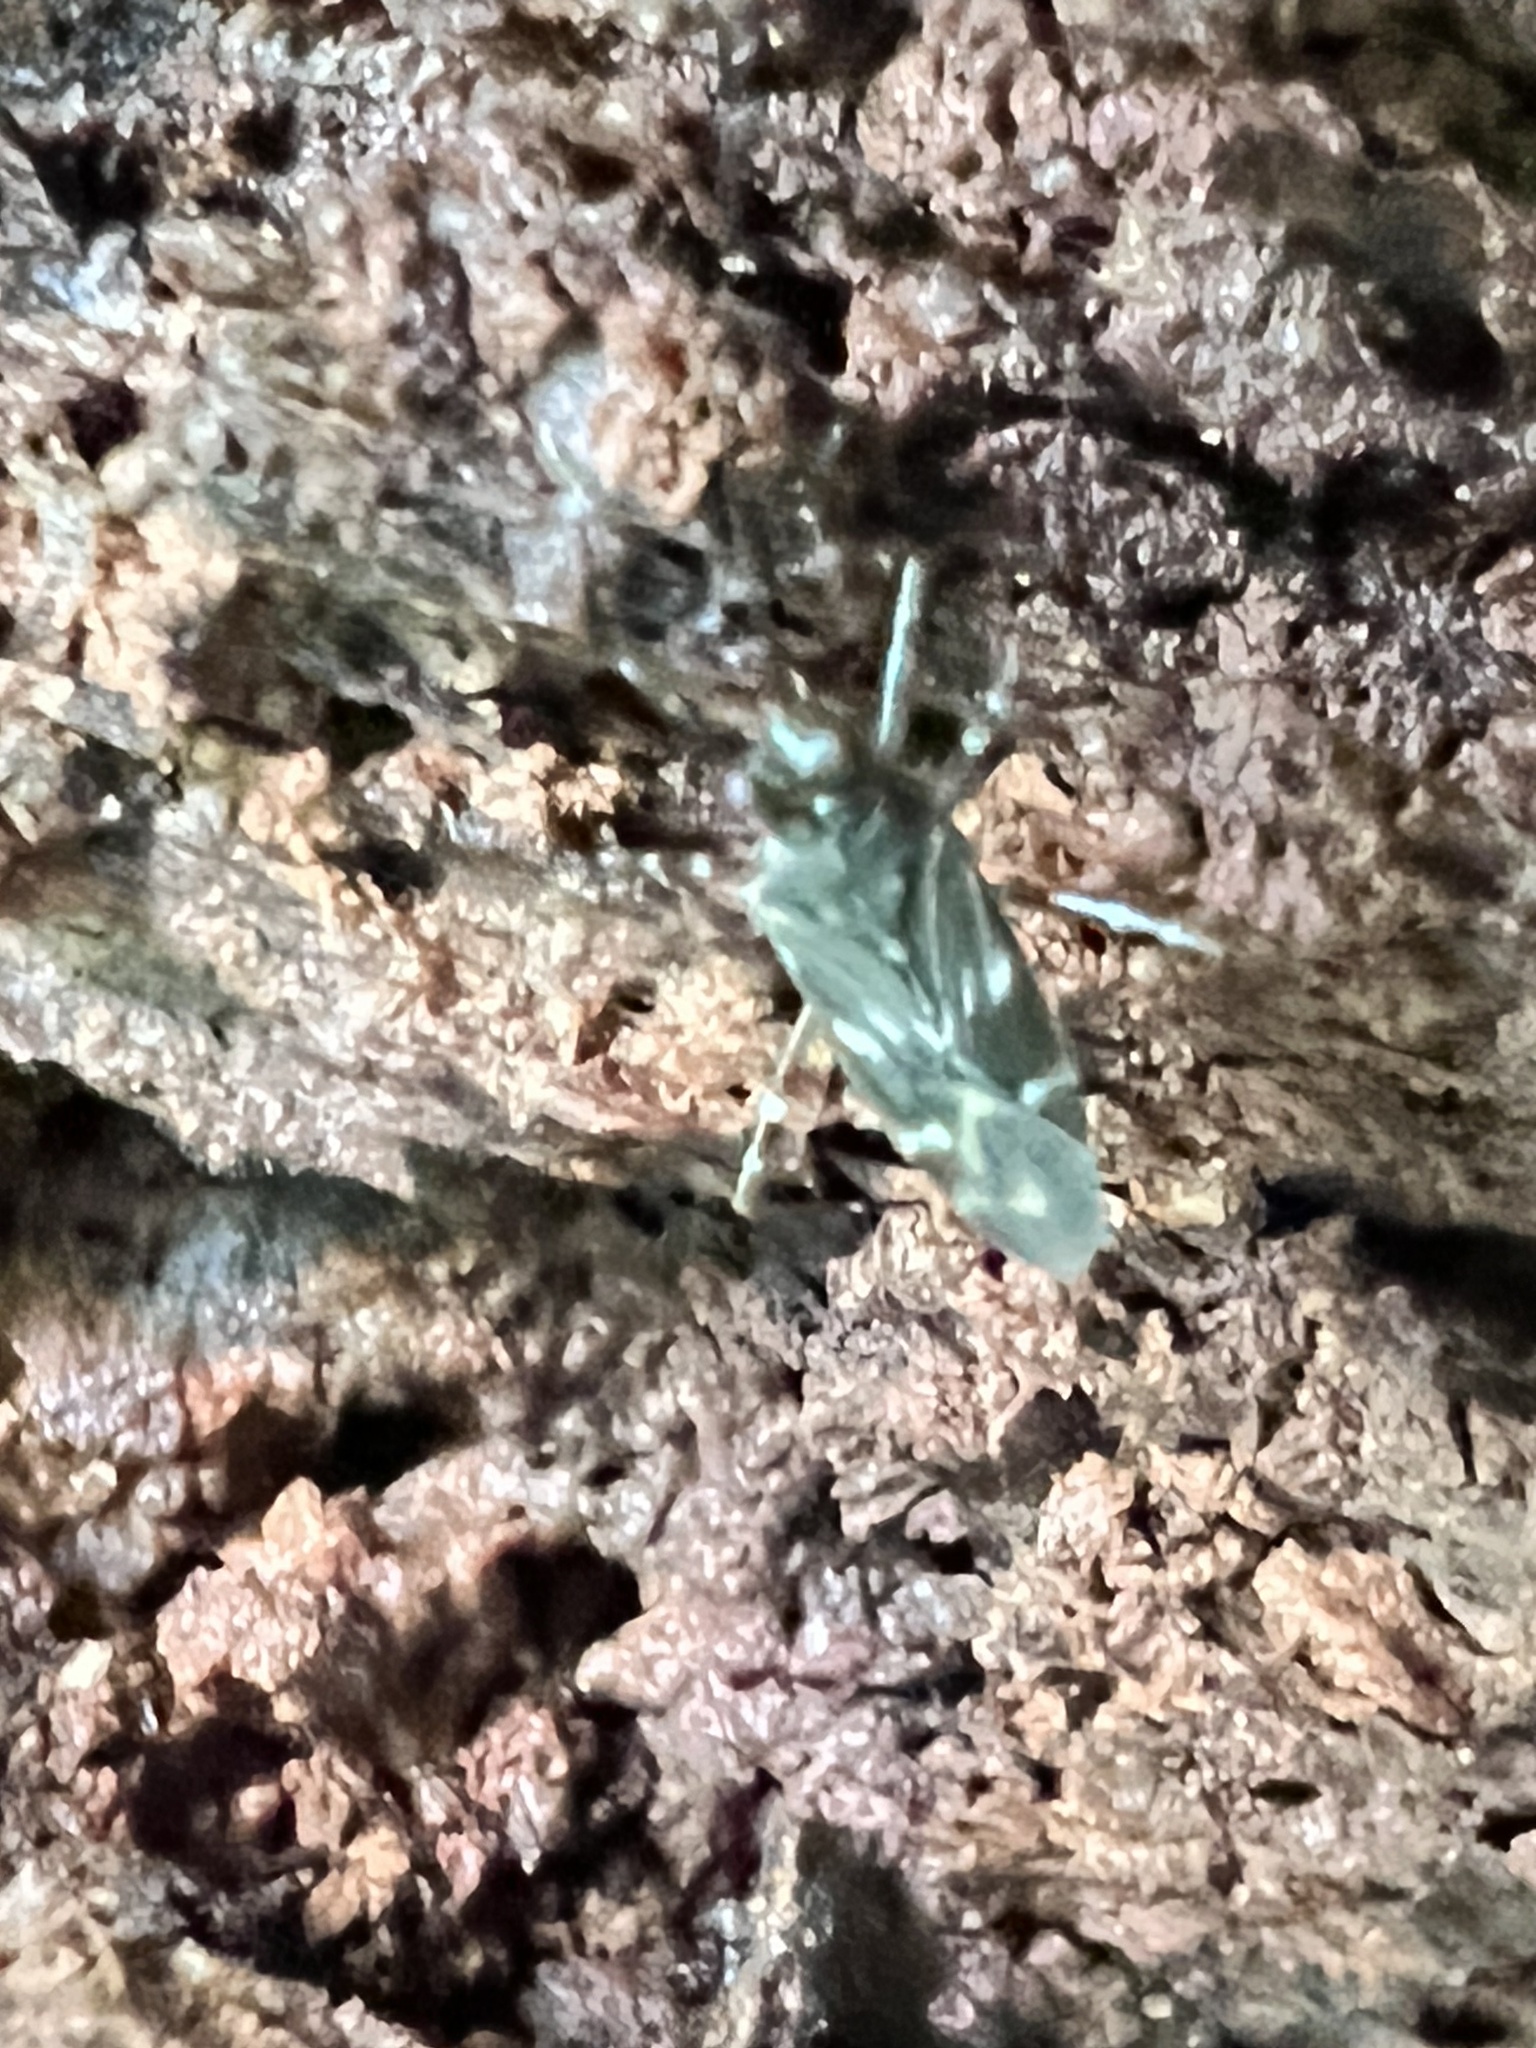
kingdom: Animalia
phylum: Arthropoda
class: Insecta
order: Hemiptera
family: Miridae
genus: Cylapus
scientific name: Cylapus tenuicornis
